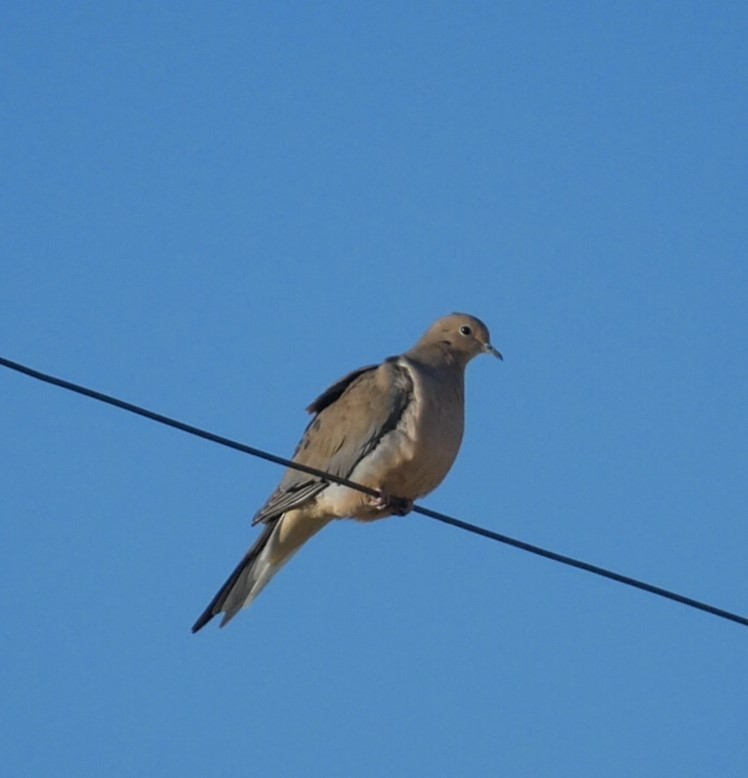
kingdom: Animalia
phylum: Chordata
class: Aves
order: Columbiformes
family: Columbidae
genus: Zenaida
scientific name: Zenaida macroura
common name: Mourning dove
